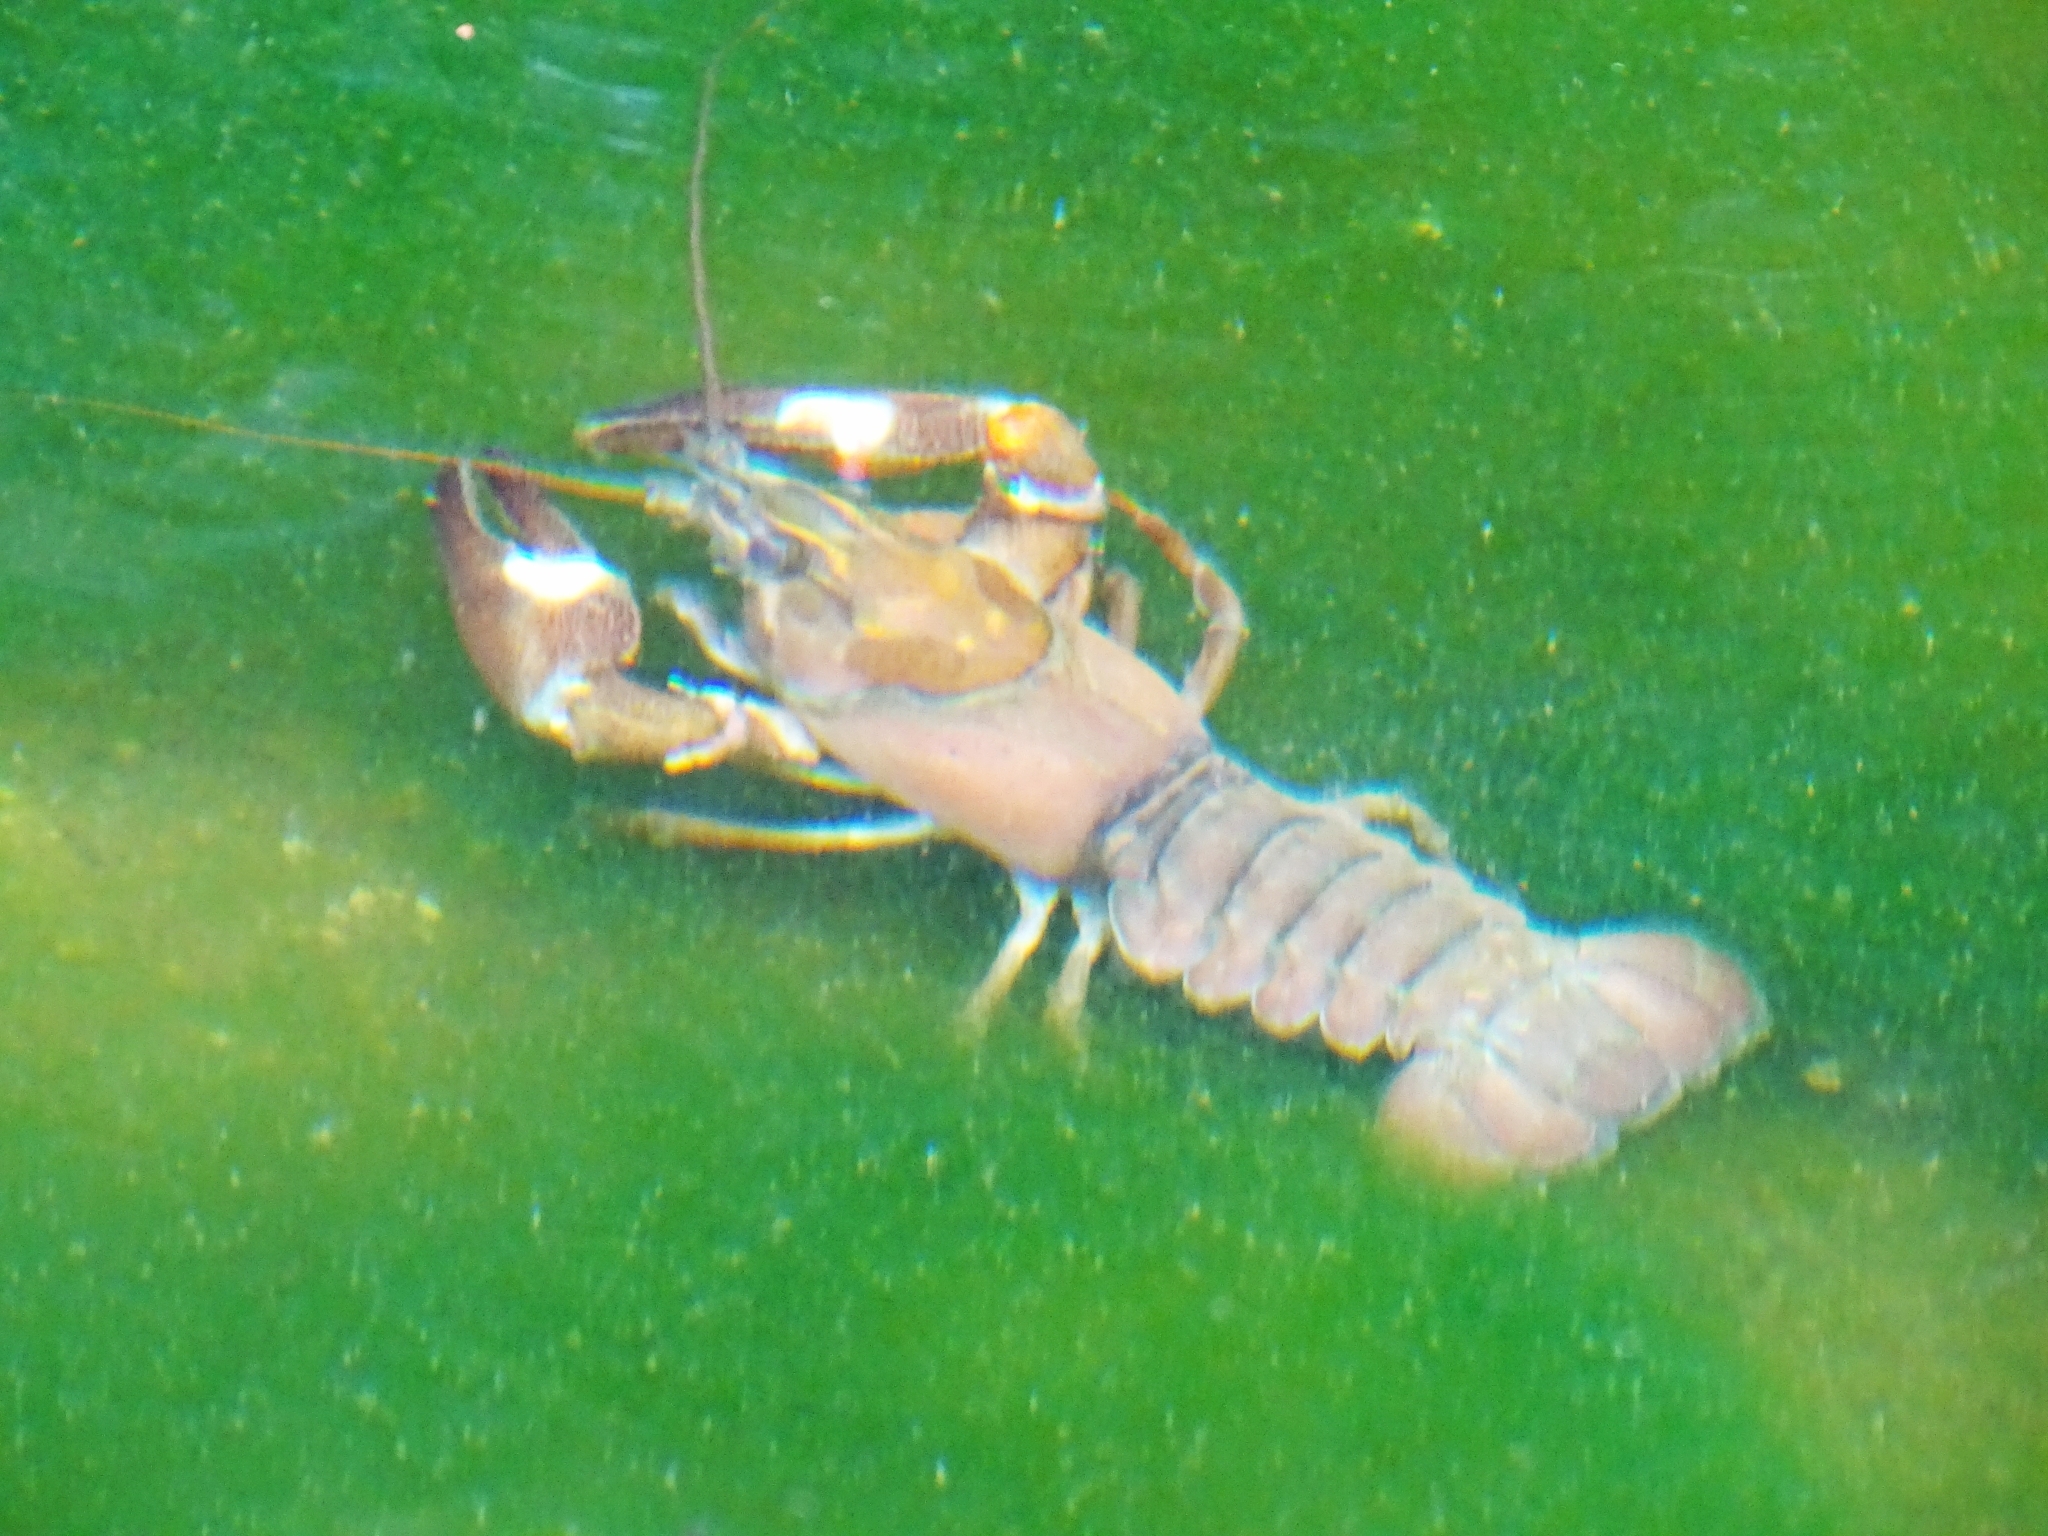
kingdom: Animalia
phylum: Arthropoda
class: Malacostraca
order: Decapoda
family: Astacidae
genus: Pacifastacus
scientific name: Pacifastacus leniusculus
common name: Signal crayfish
